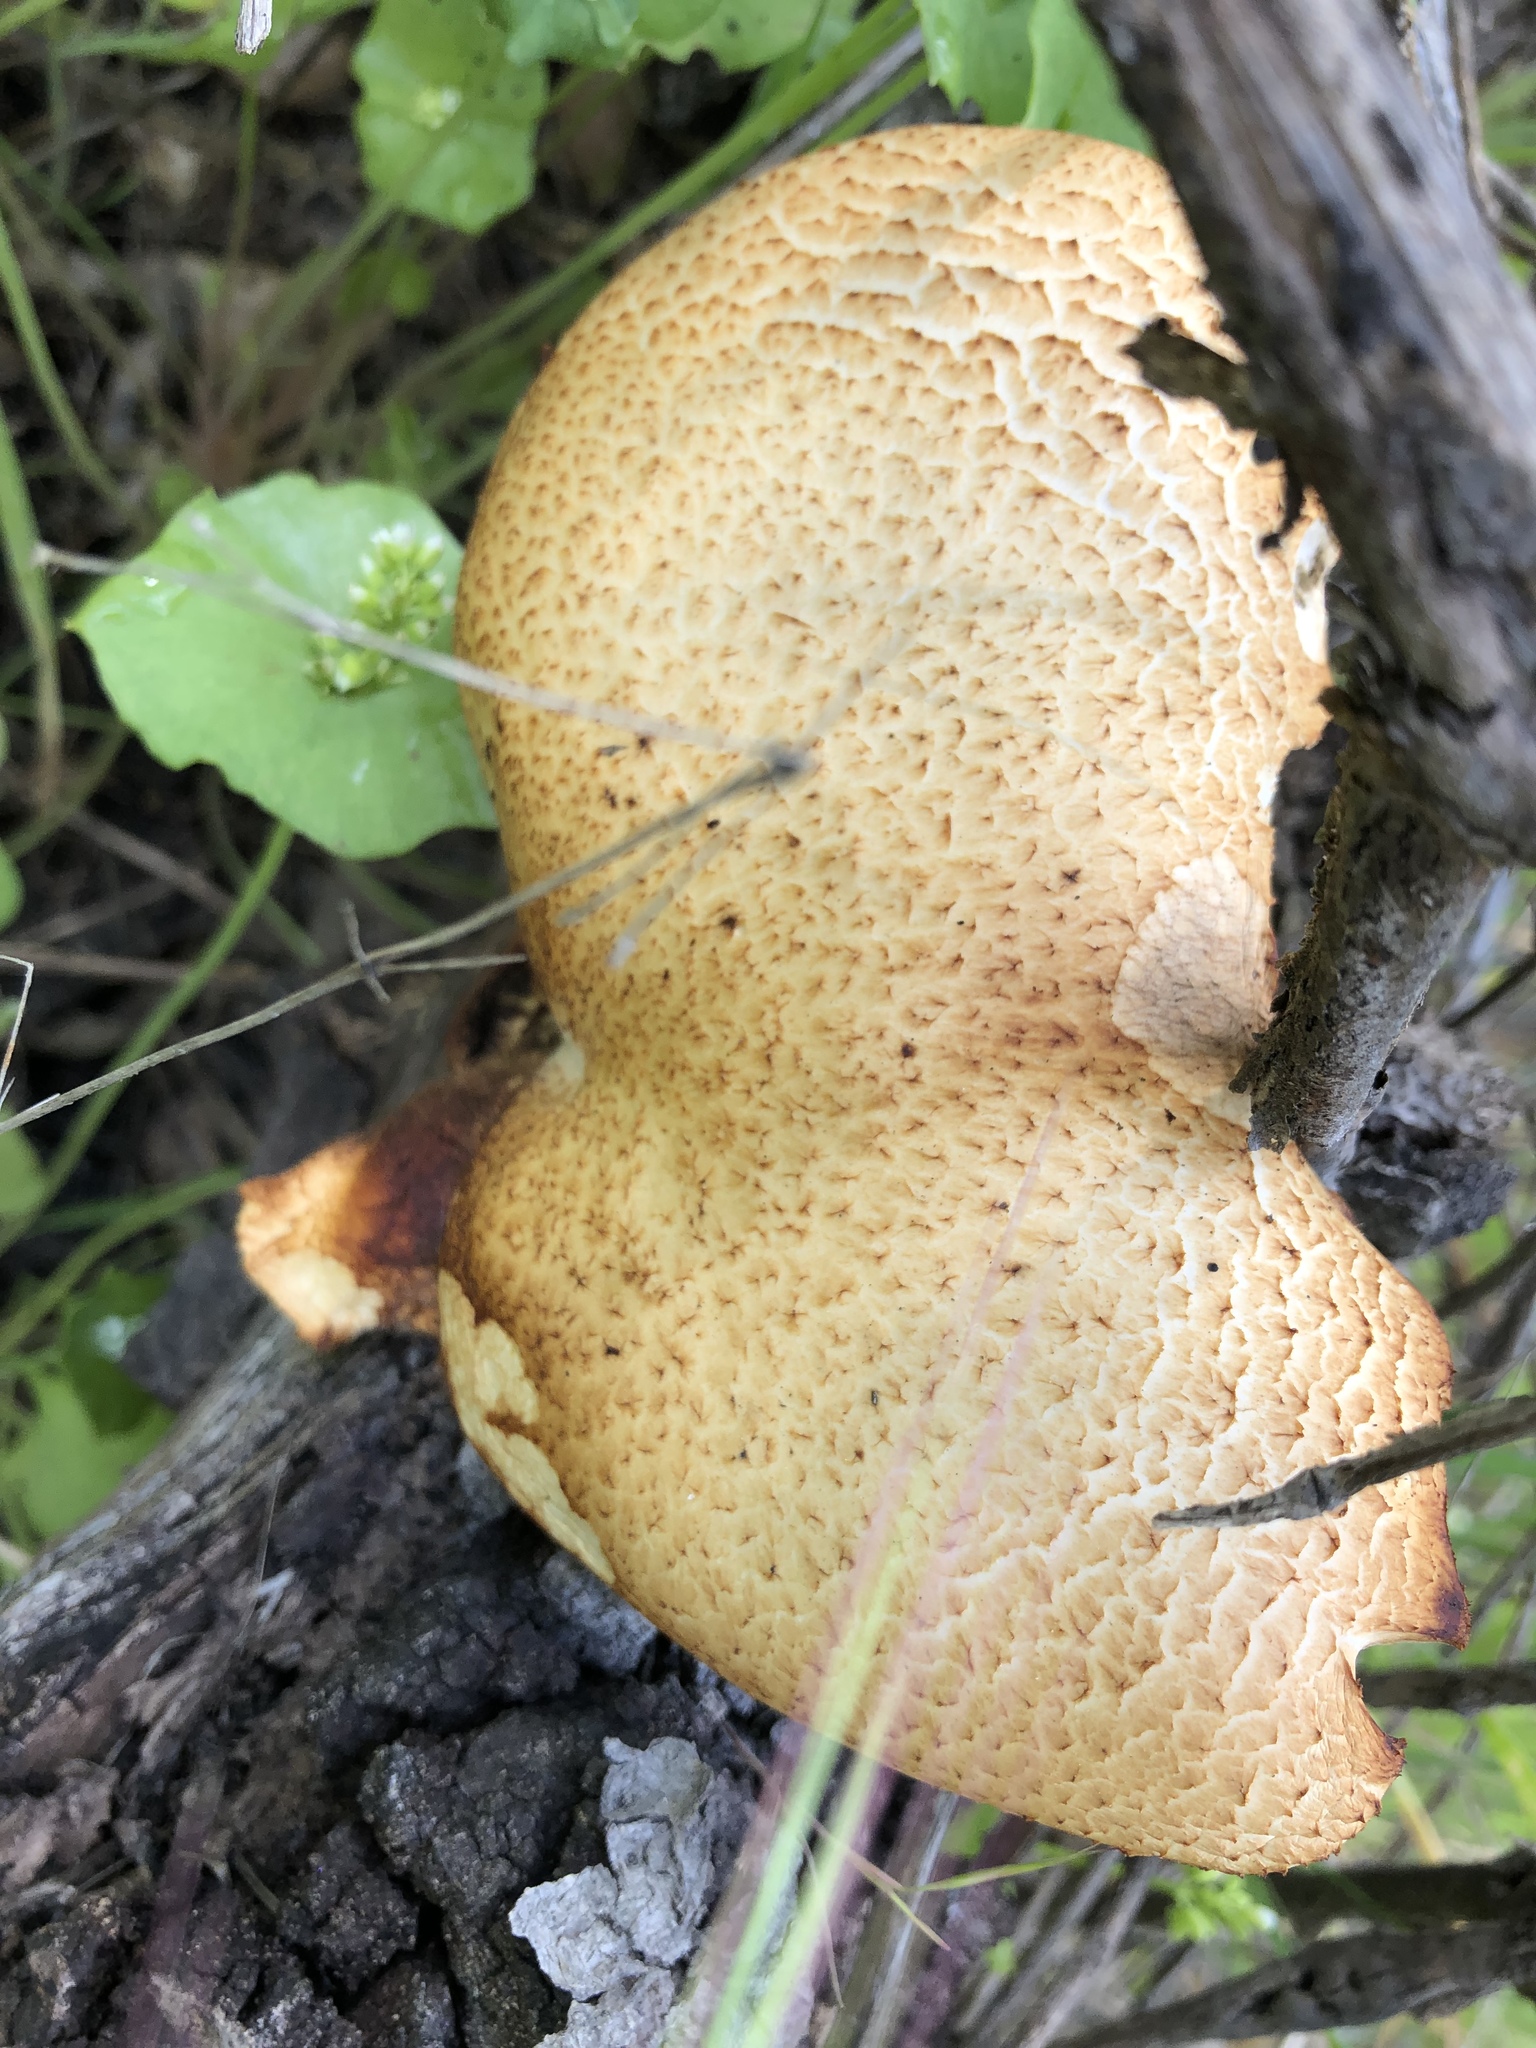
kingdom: Fungi
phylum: Basidiomycota
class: Agaricomycetes
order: Polyporales
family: Polyporaceae
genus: Polyporus
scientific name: Polyporus tuberaster
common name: Tuberous polypore
